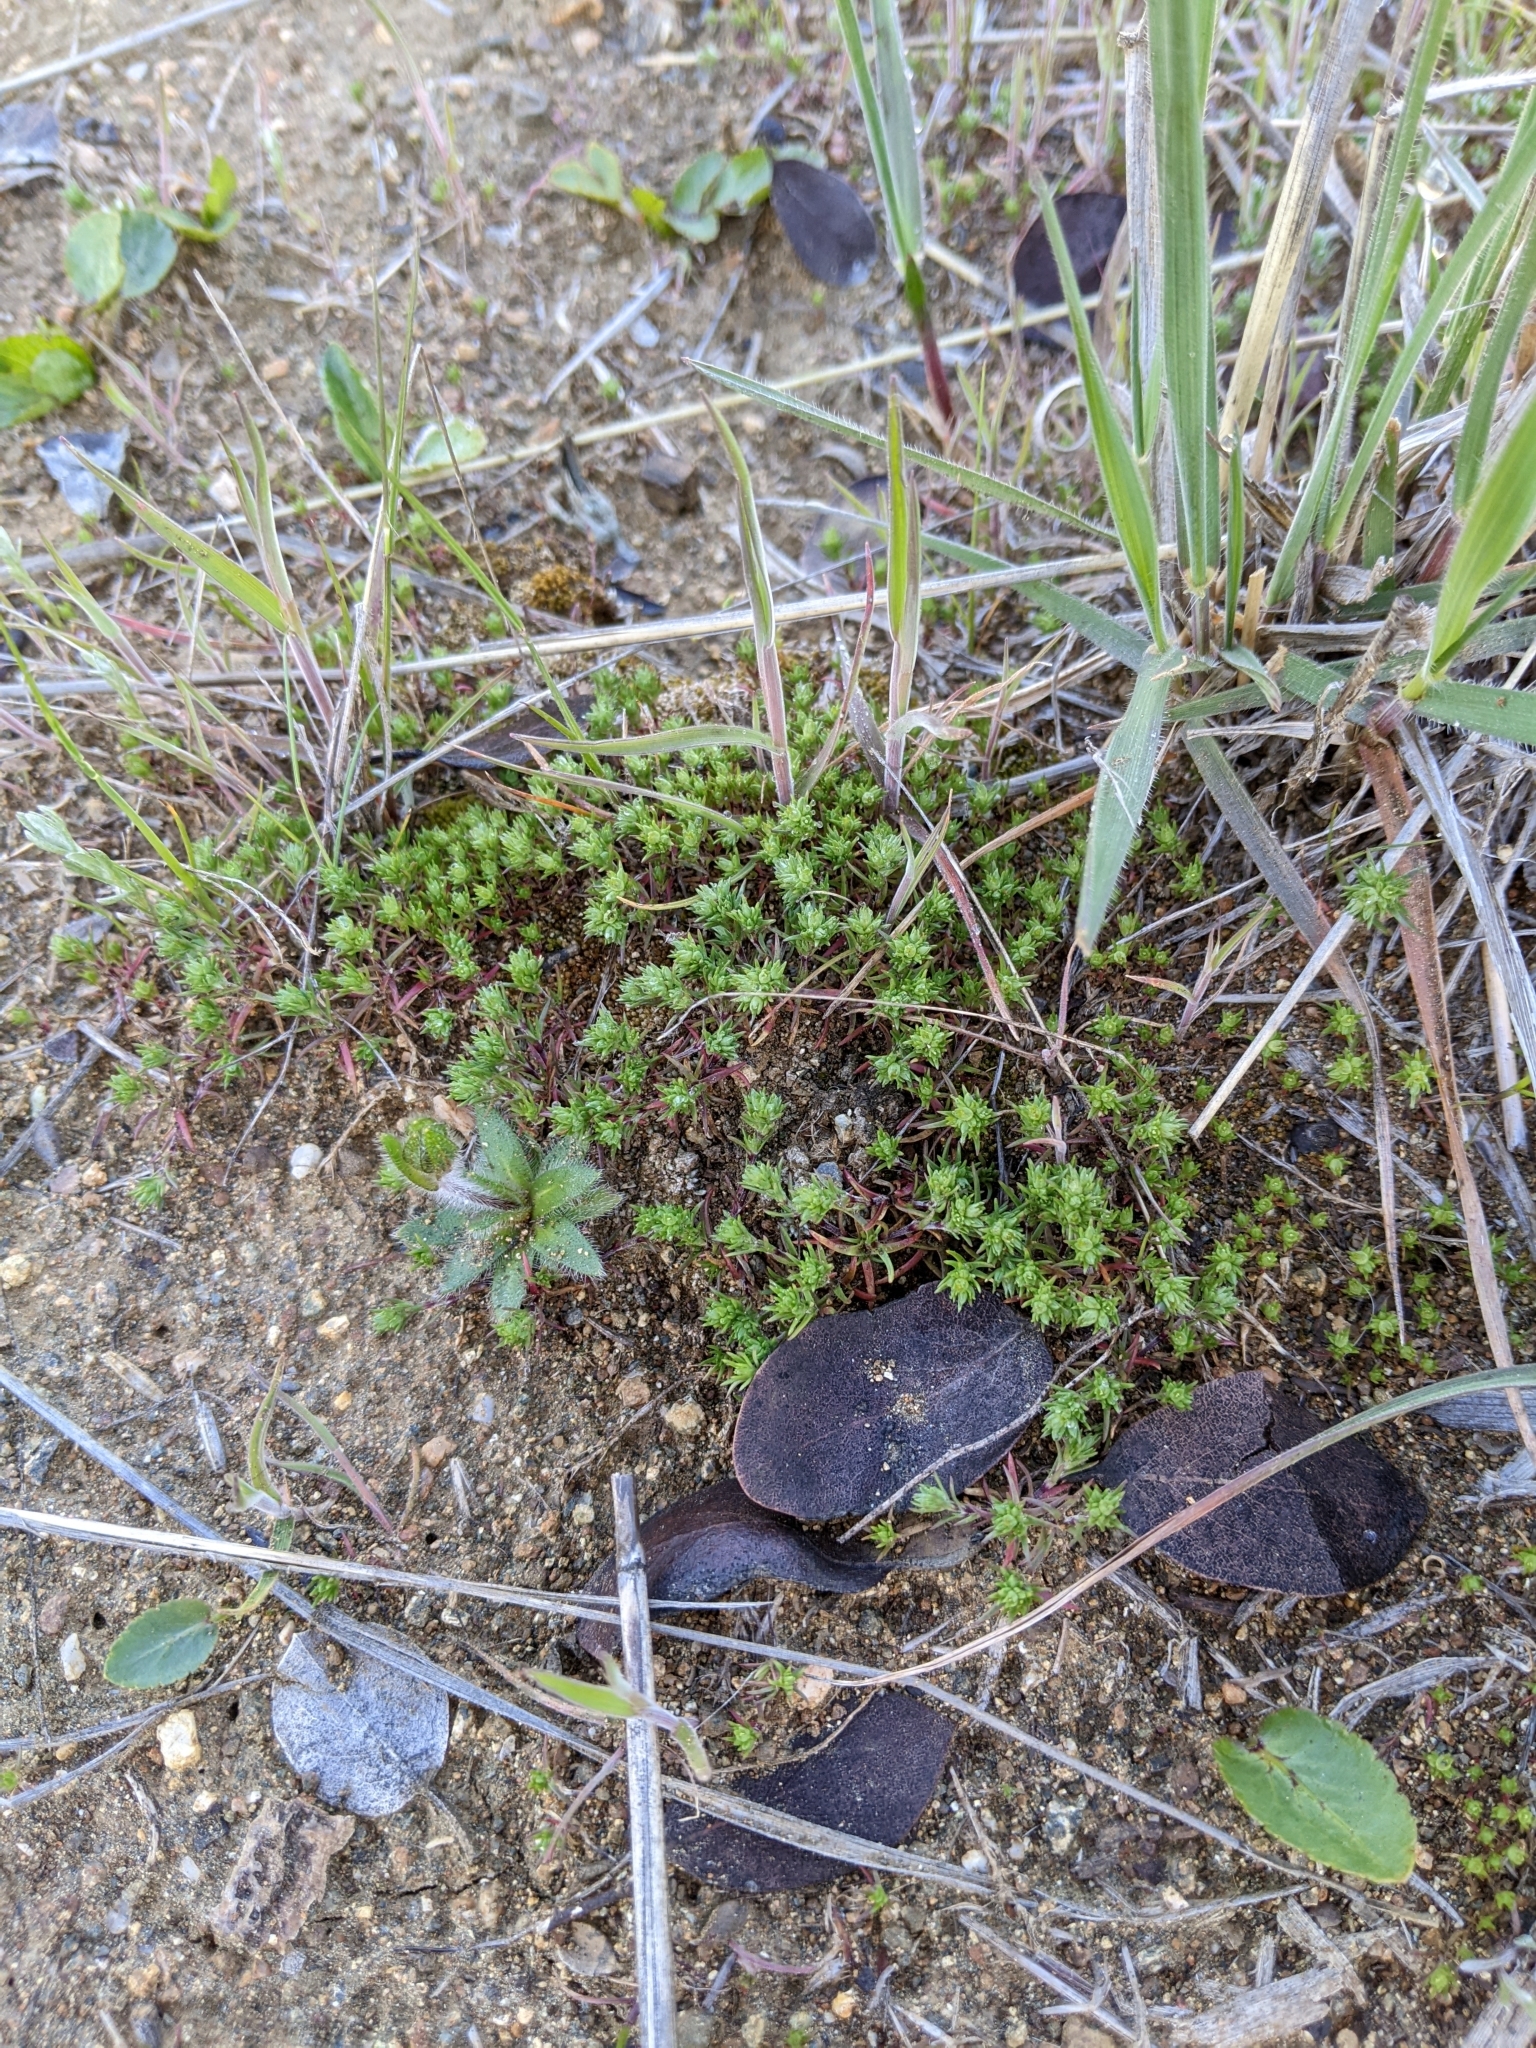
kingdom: Plantae
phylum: Tracheophyta
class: Magnoliopsida
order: Caryophyllales
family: Caryophyllaceae
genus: Scleranthus
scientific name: Scleranthus annuus
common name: Annual knawel
